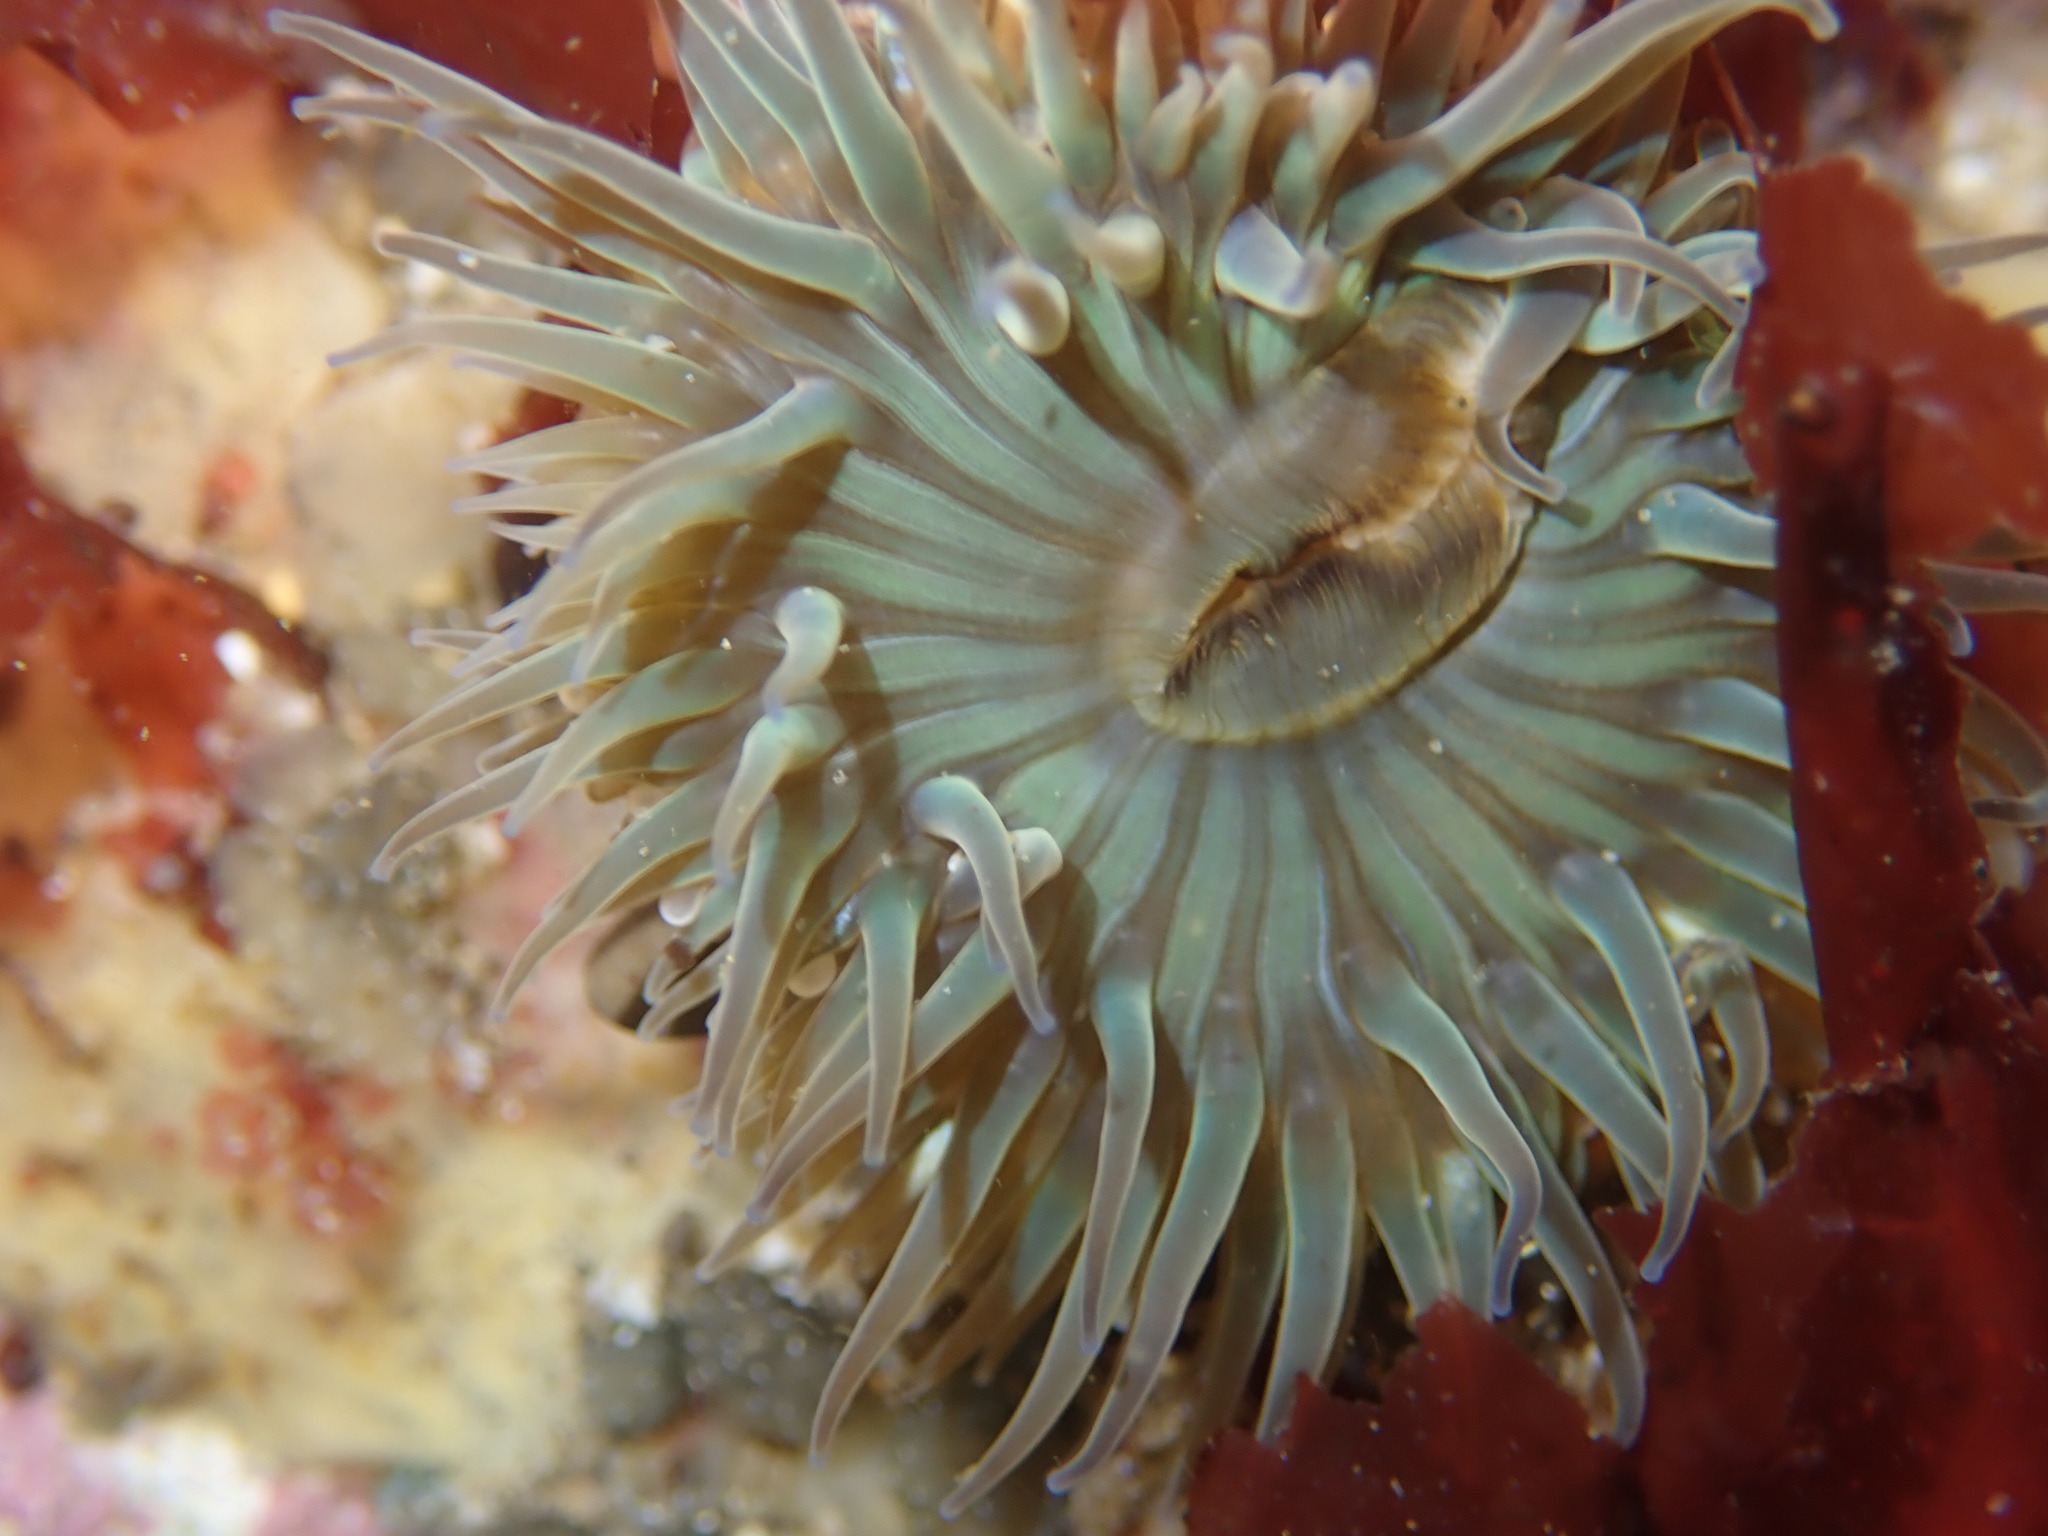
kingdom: Animalia
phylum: Cnidaria
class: Anthozoa
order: Actiniaria
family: Actiniidae
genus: Anthopleura
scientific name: Anthopleura sola
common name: Sun anemone
